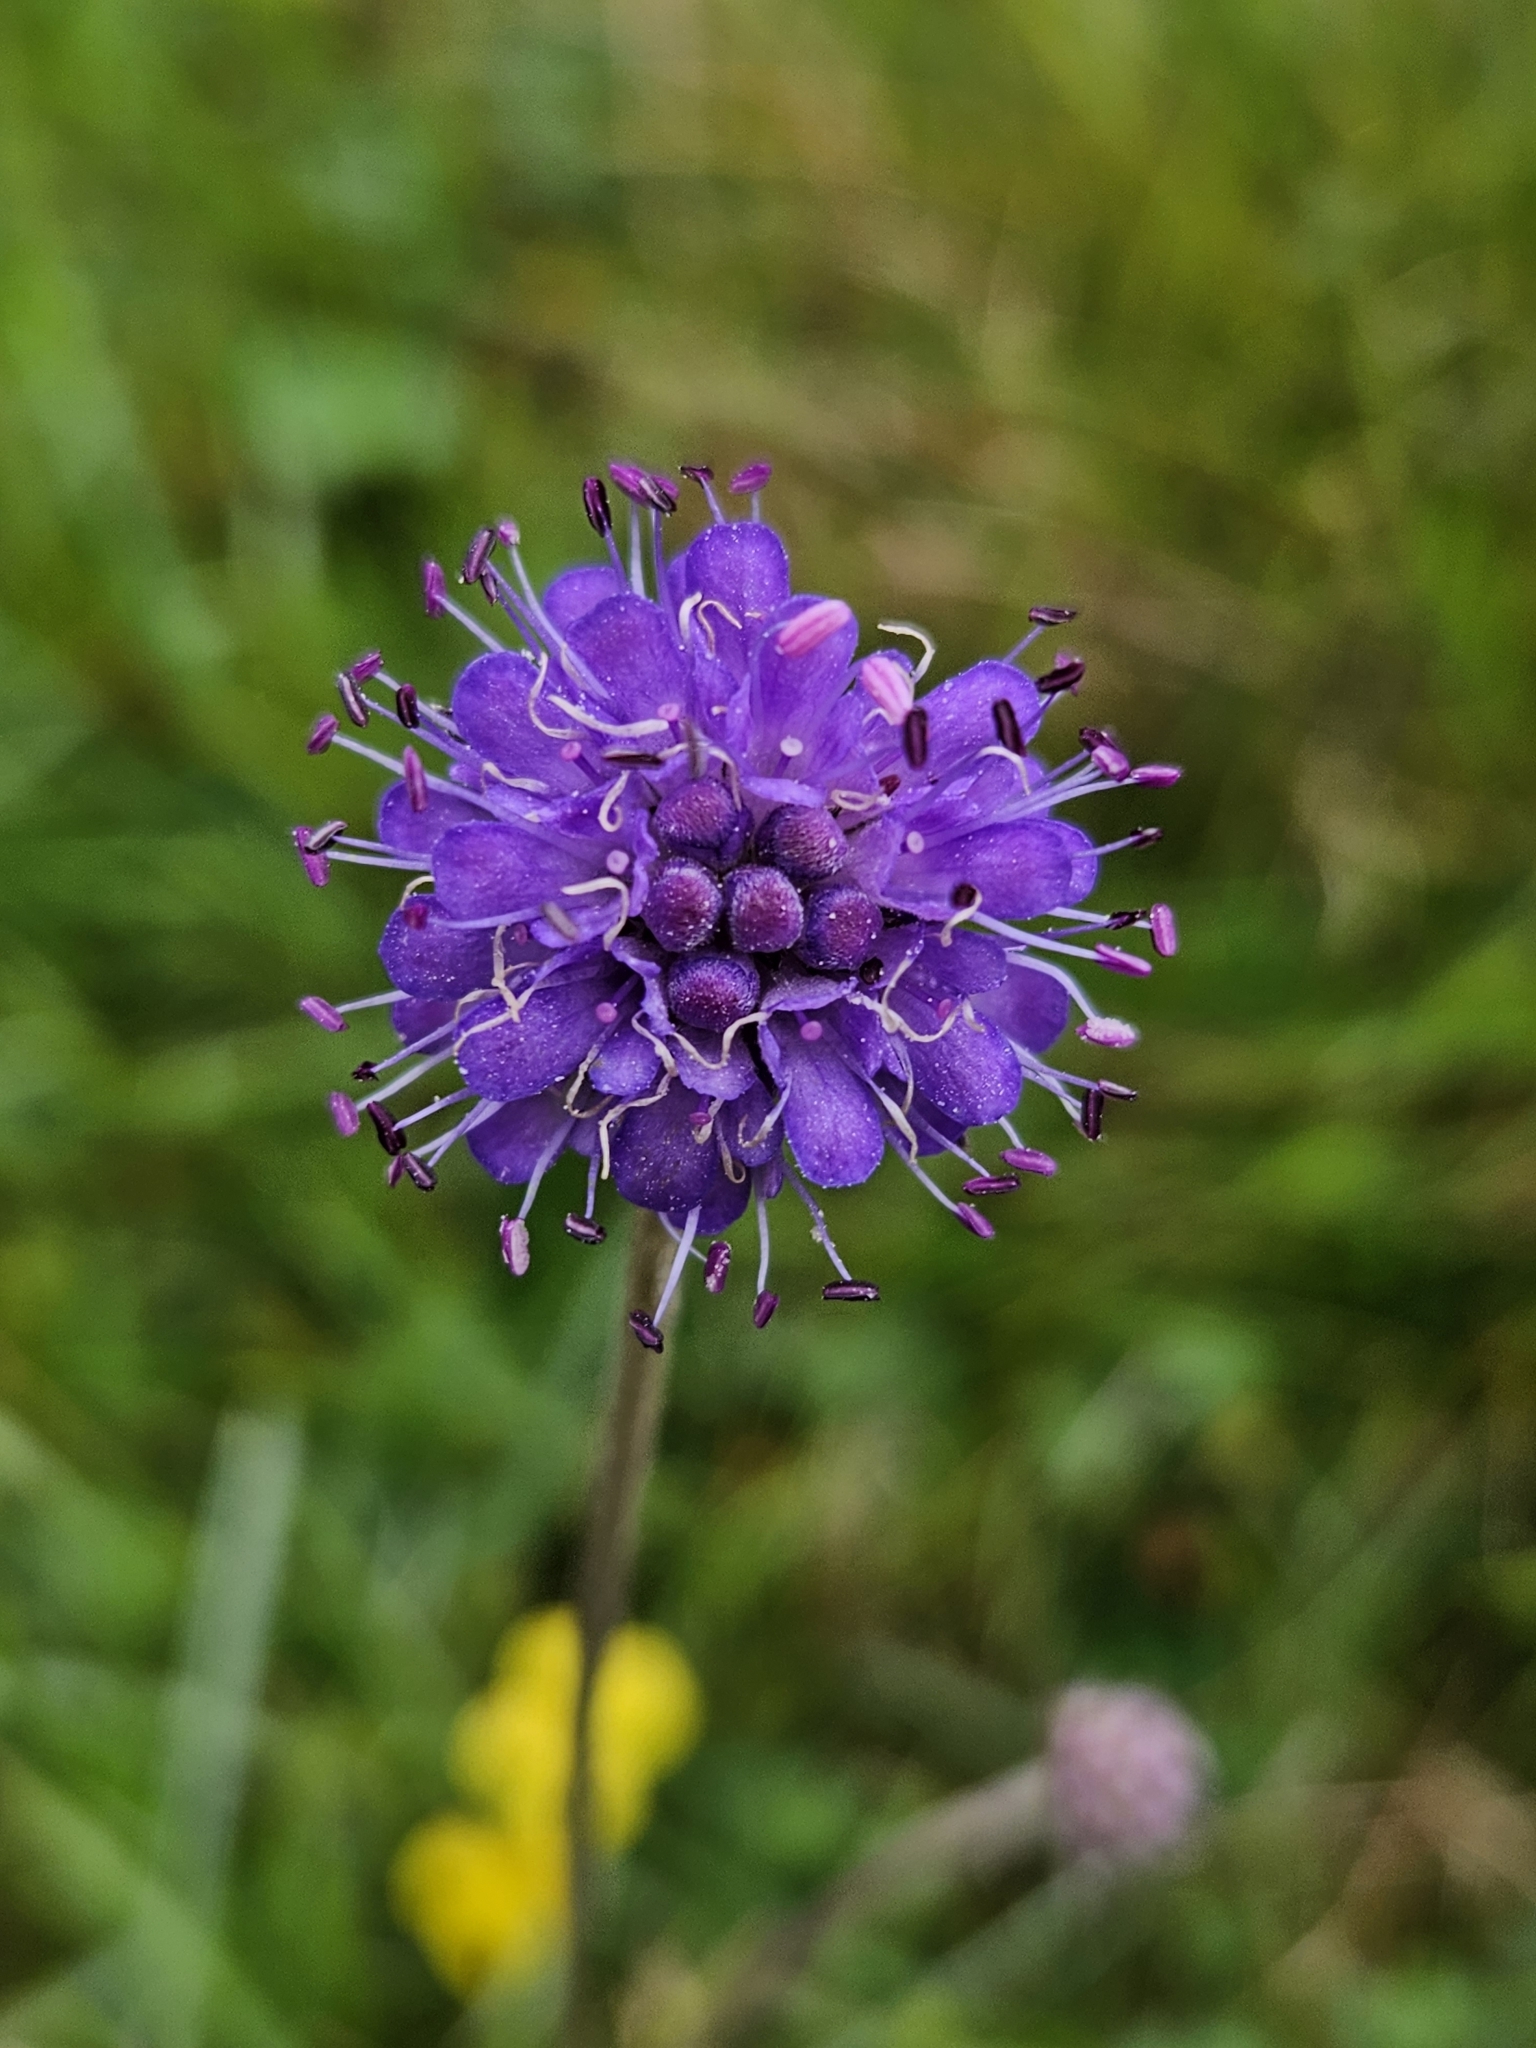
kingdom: Plantae
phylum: Tracheophyta
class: Magnoliopsida
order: Dipsacales
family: Caprifoliaceae
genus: Succisa
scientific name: Succisa pratensis
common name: Devil's-bit
